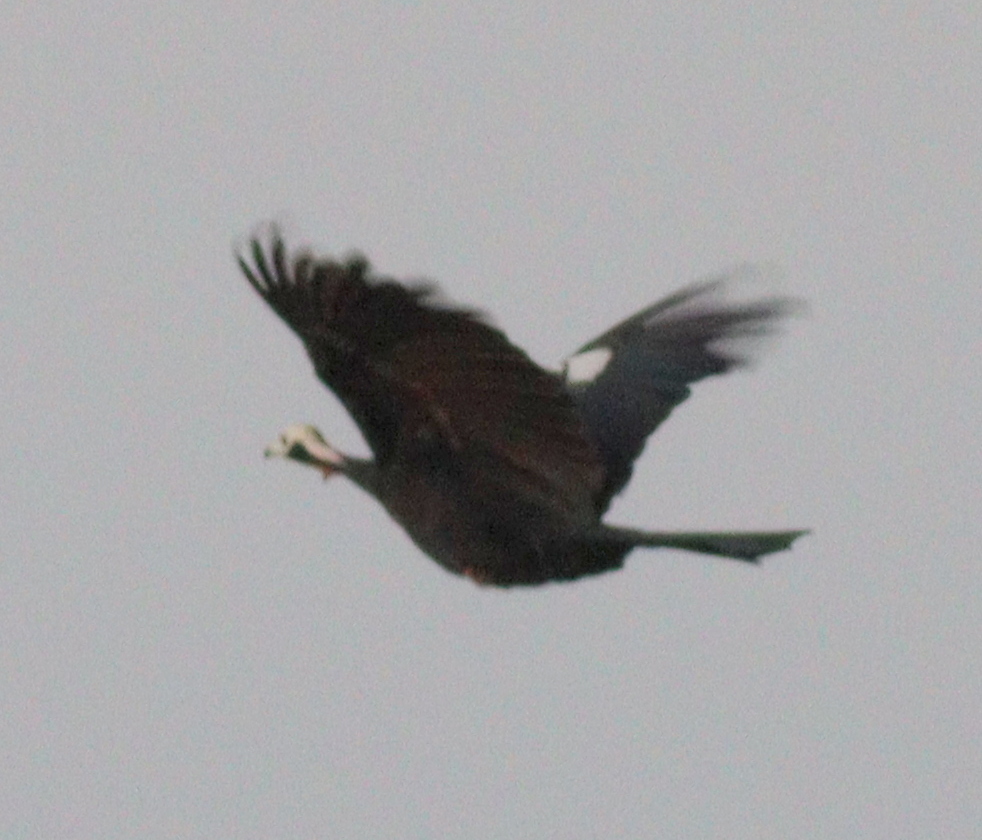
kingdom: Animalia
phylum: Chordata
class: Aves
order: Galliformes
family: Cracidae
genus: Pipile
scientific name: Pipile cujubi
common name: Red-throated piping-guan
